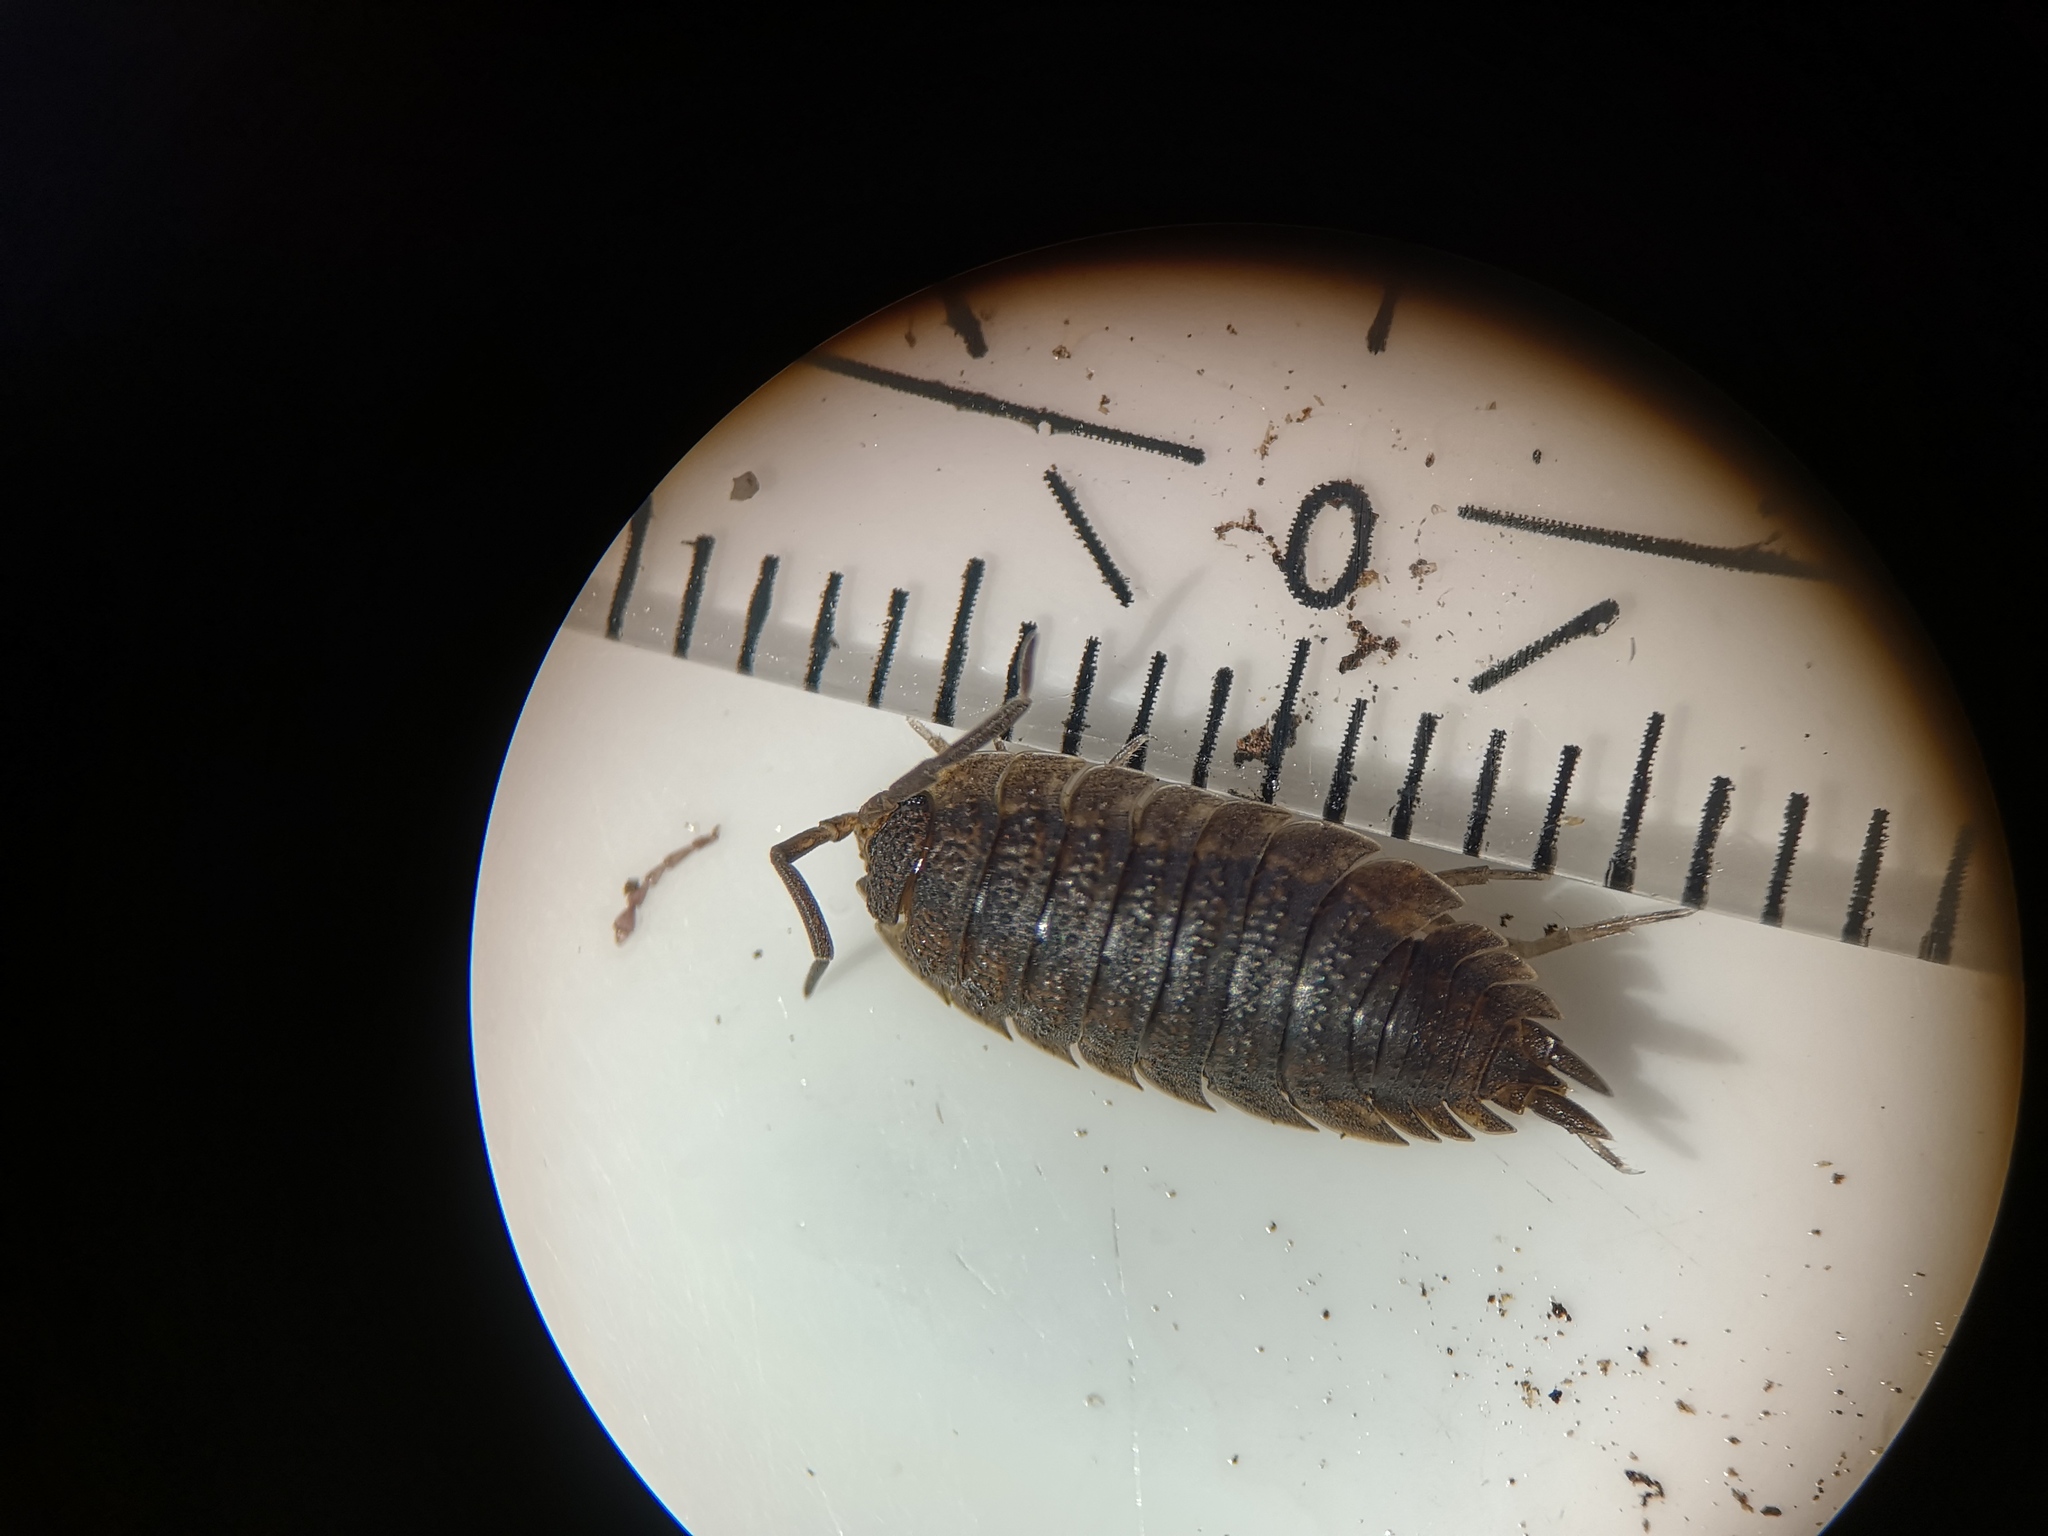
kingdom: Animalia
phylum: Arthropoda
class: Malacostraca
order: Isopoda
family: Porcellionidae
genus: Porcellio
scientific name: Porcellio scaber
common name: Common rough woodlouse
